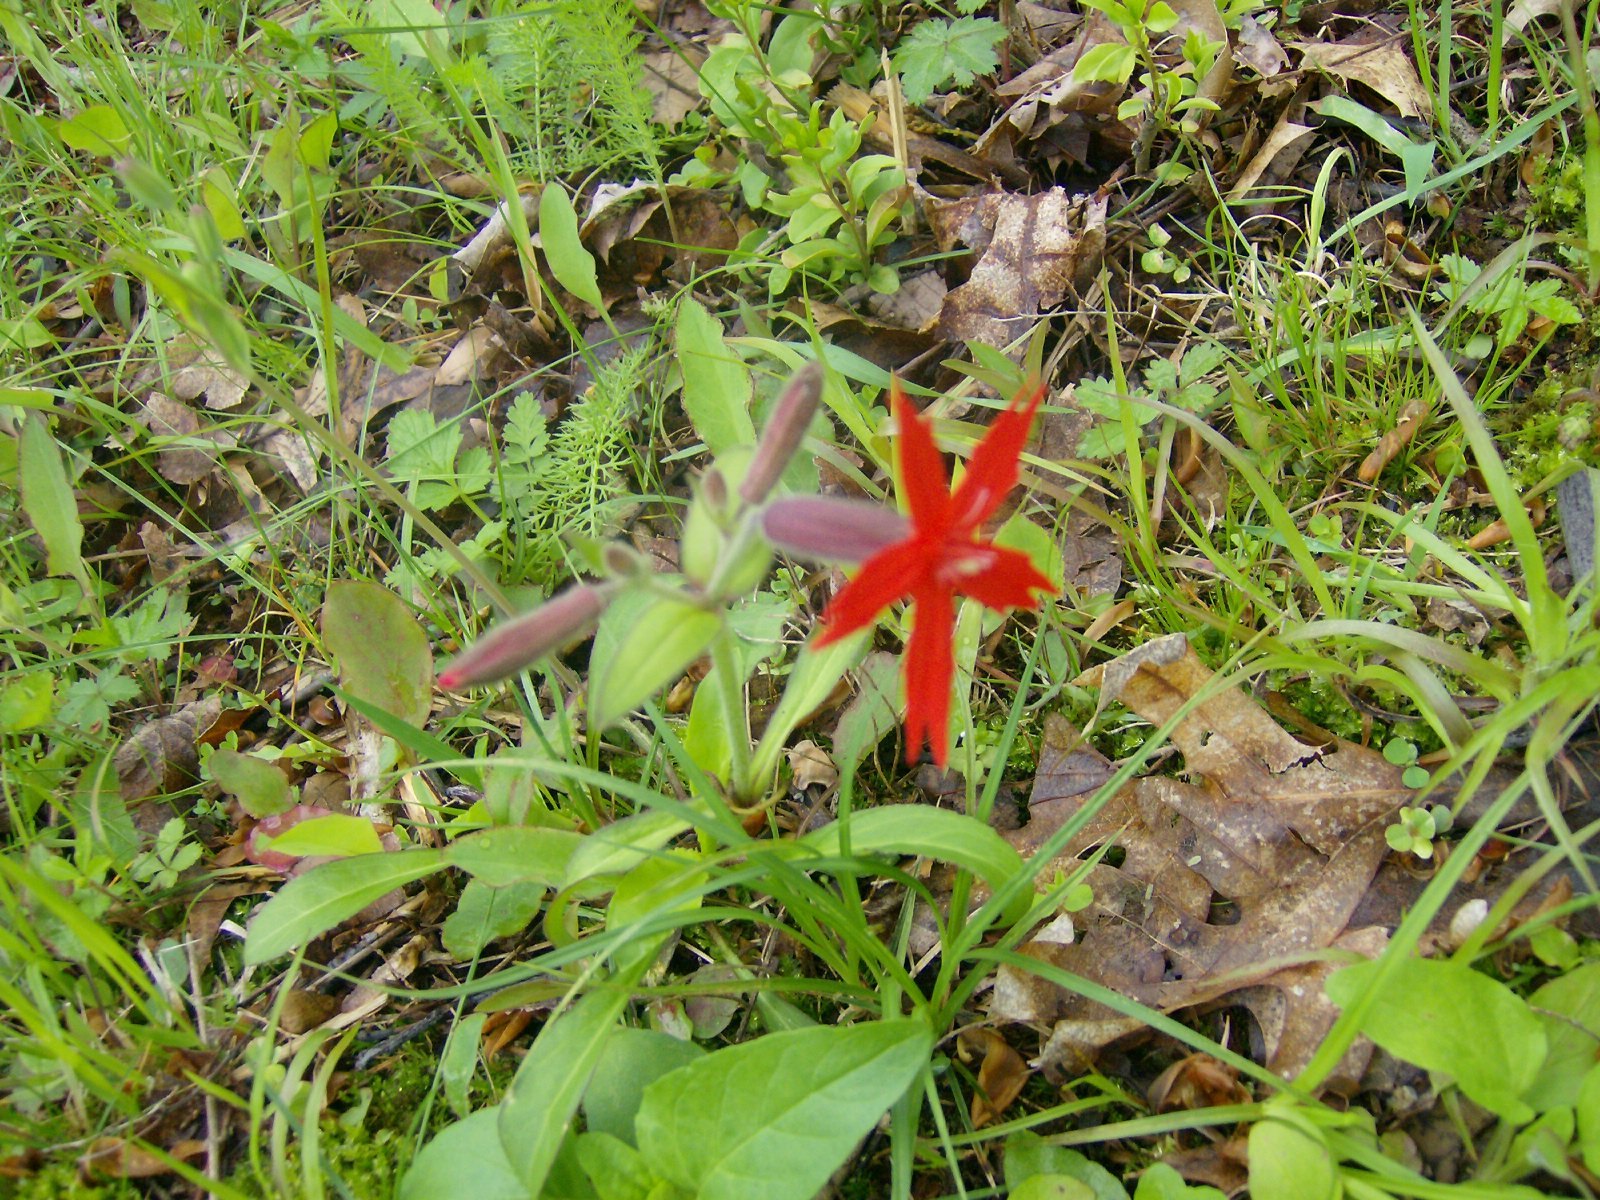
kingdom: Plantae
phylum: Tracheophyta
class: Magnoliopsida
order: Caryophyllales
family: Caryophyllaceae
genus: Silene
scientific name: Silene virginica
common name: Fire-pink
